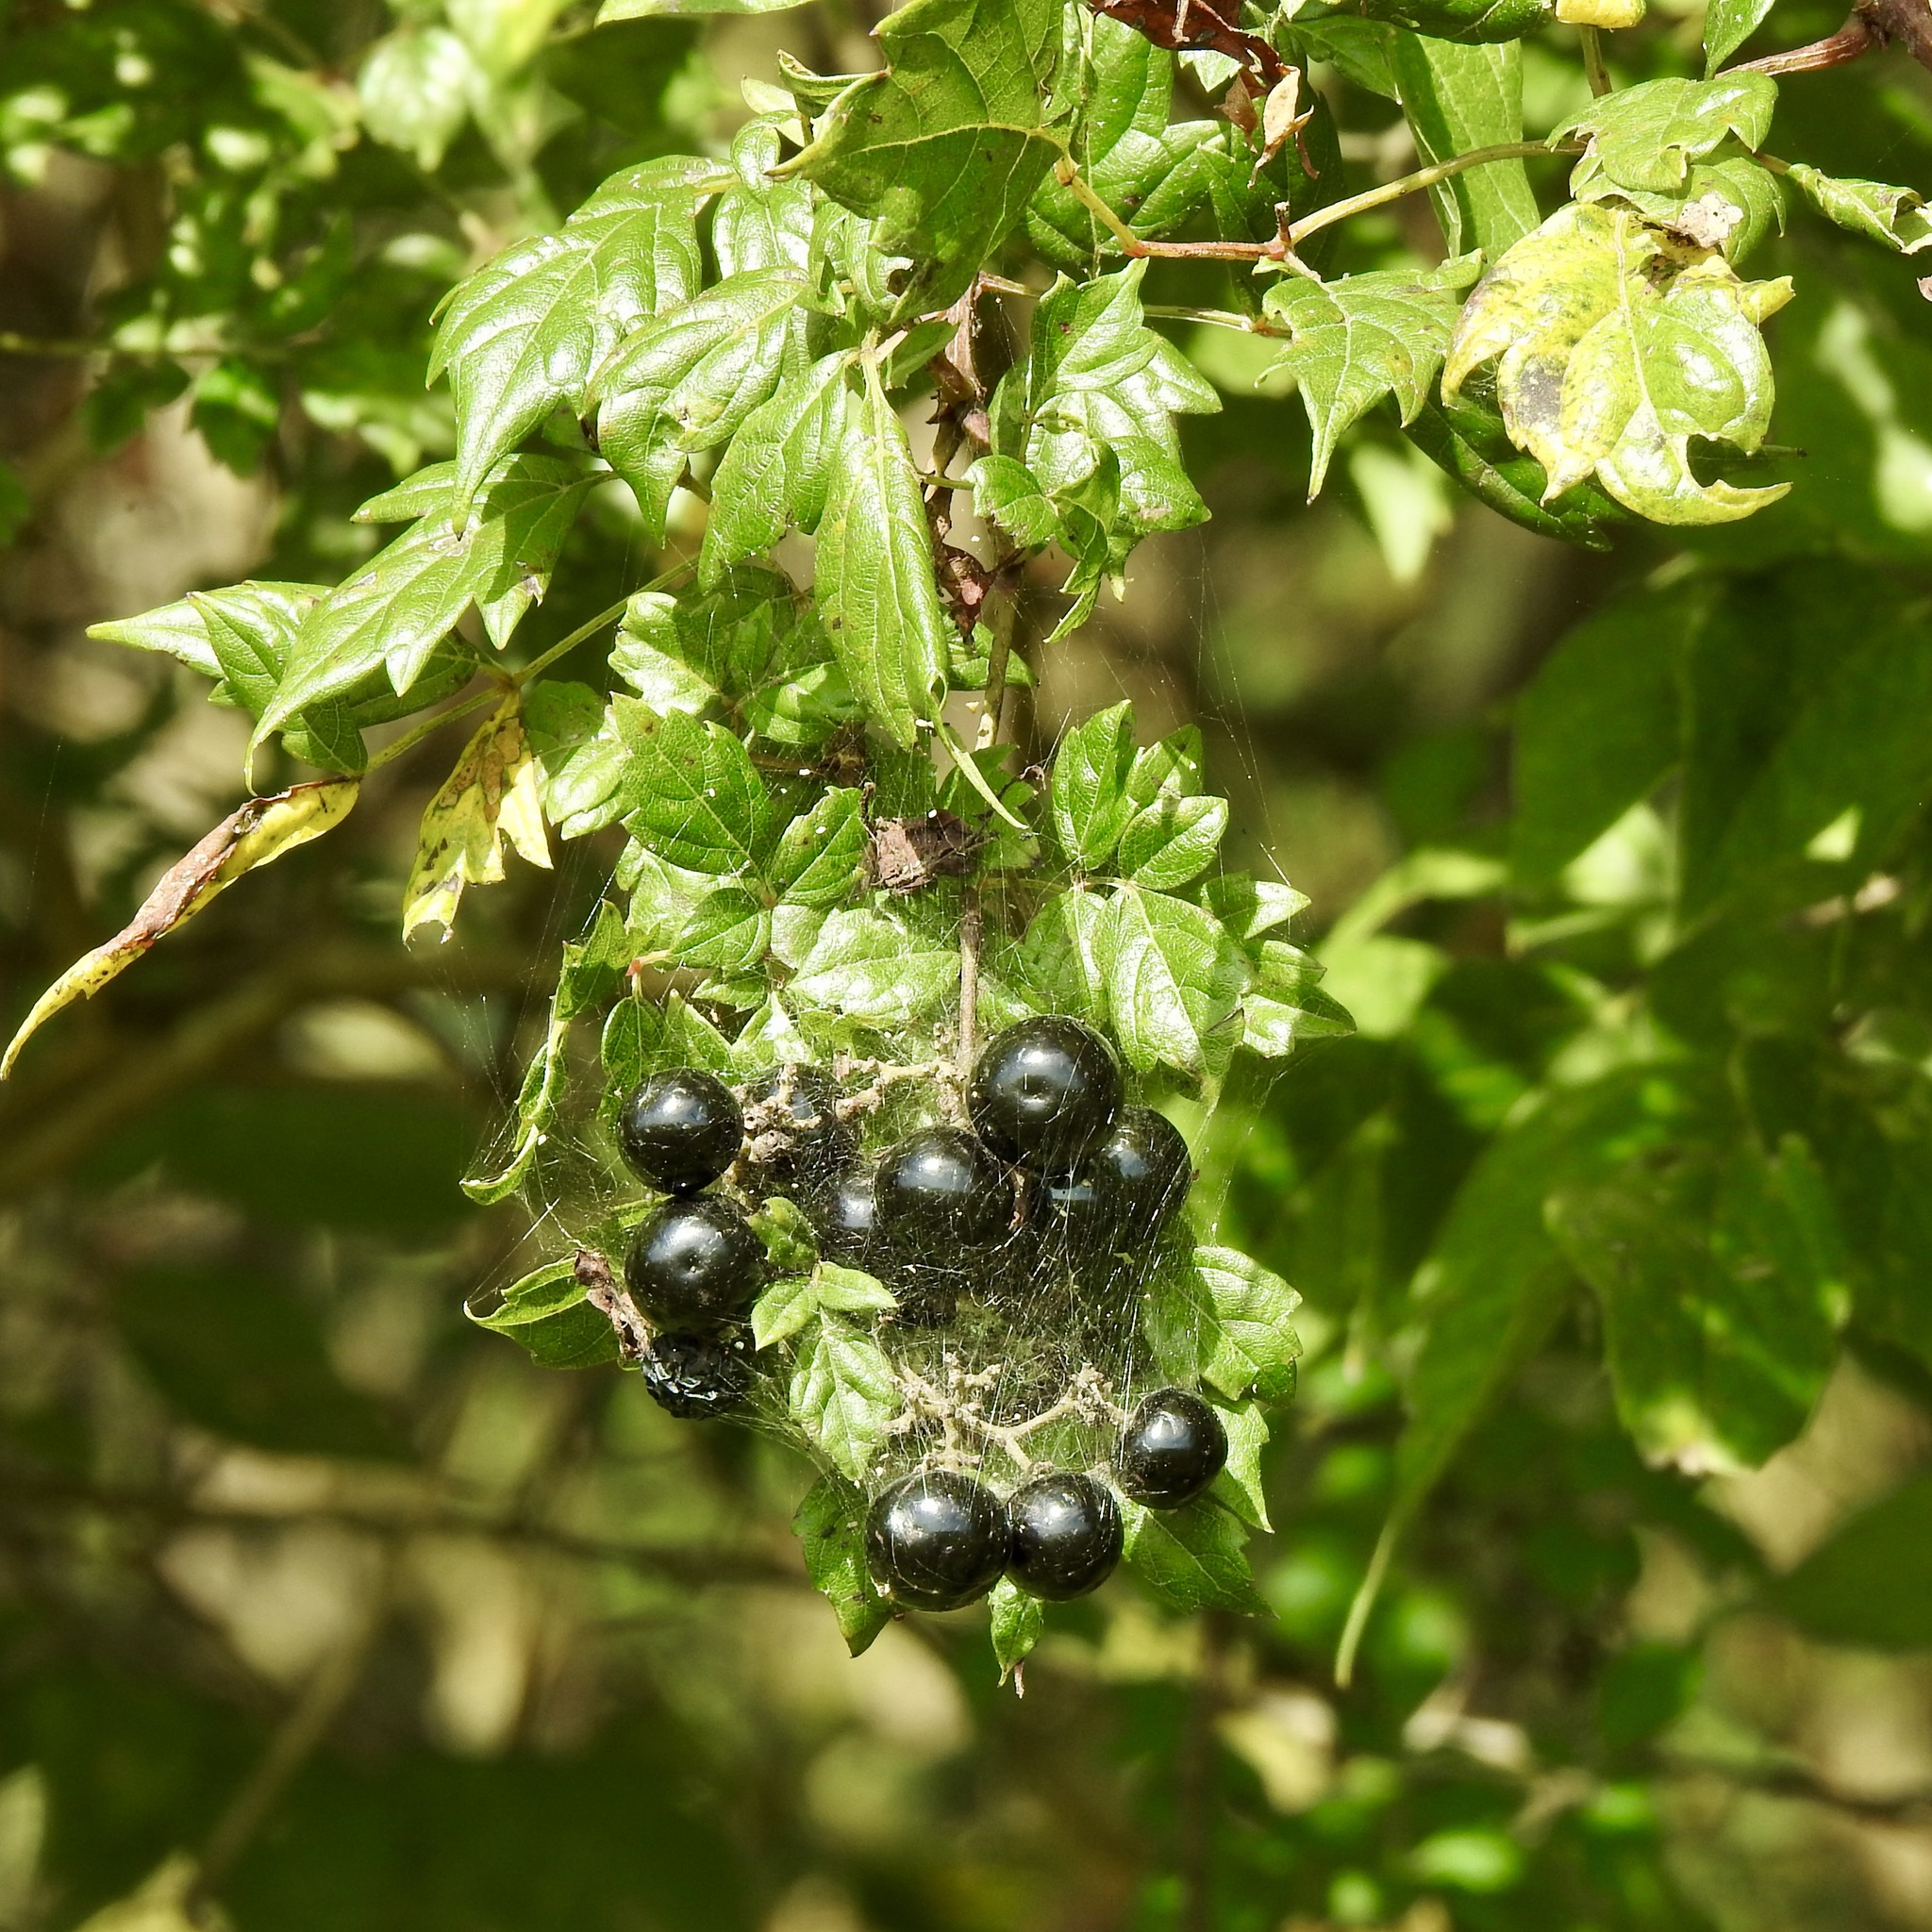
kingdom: Plantae
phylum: Tracheophyta
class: Magnoliopsida
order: Vitales
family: Vitaceae
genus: Nekemias
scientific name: Nekemias arborea
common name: Peppervine
